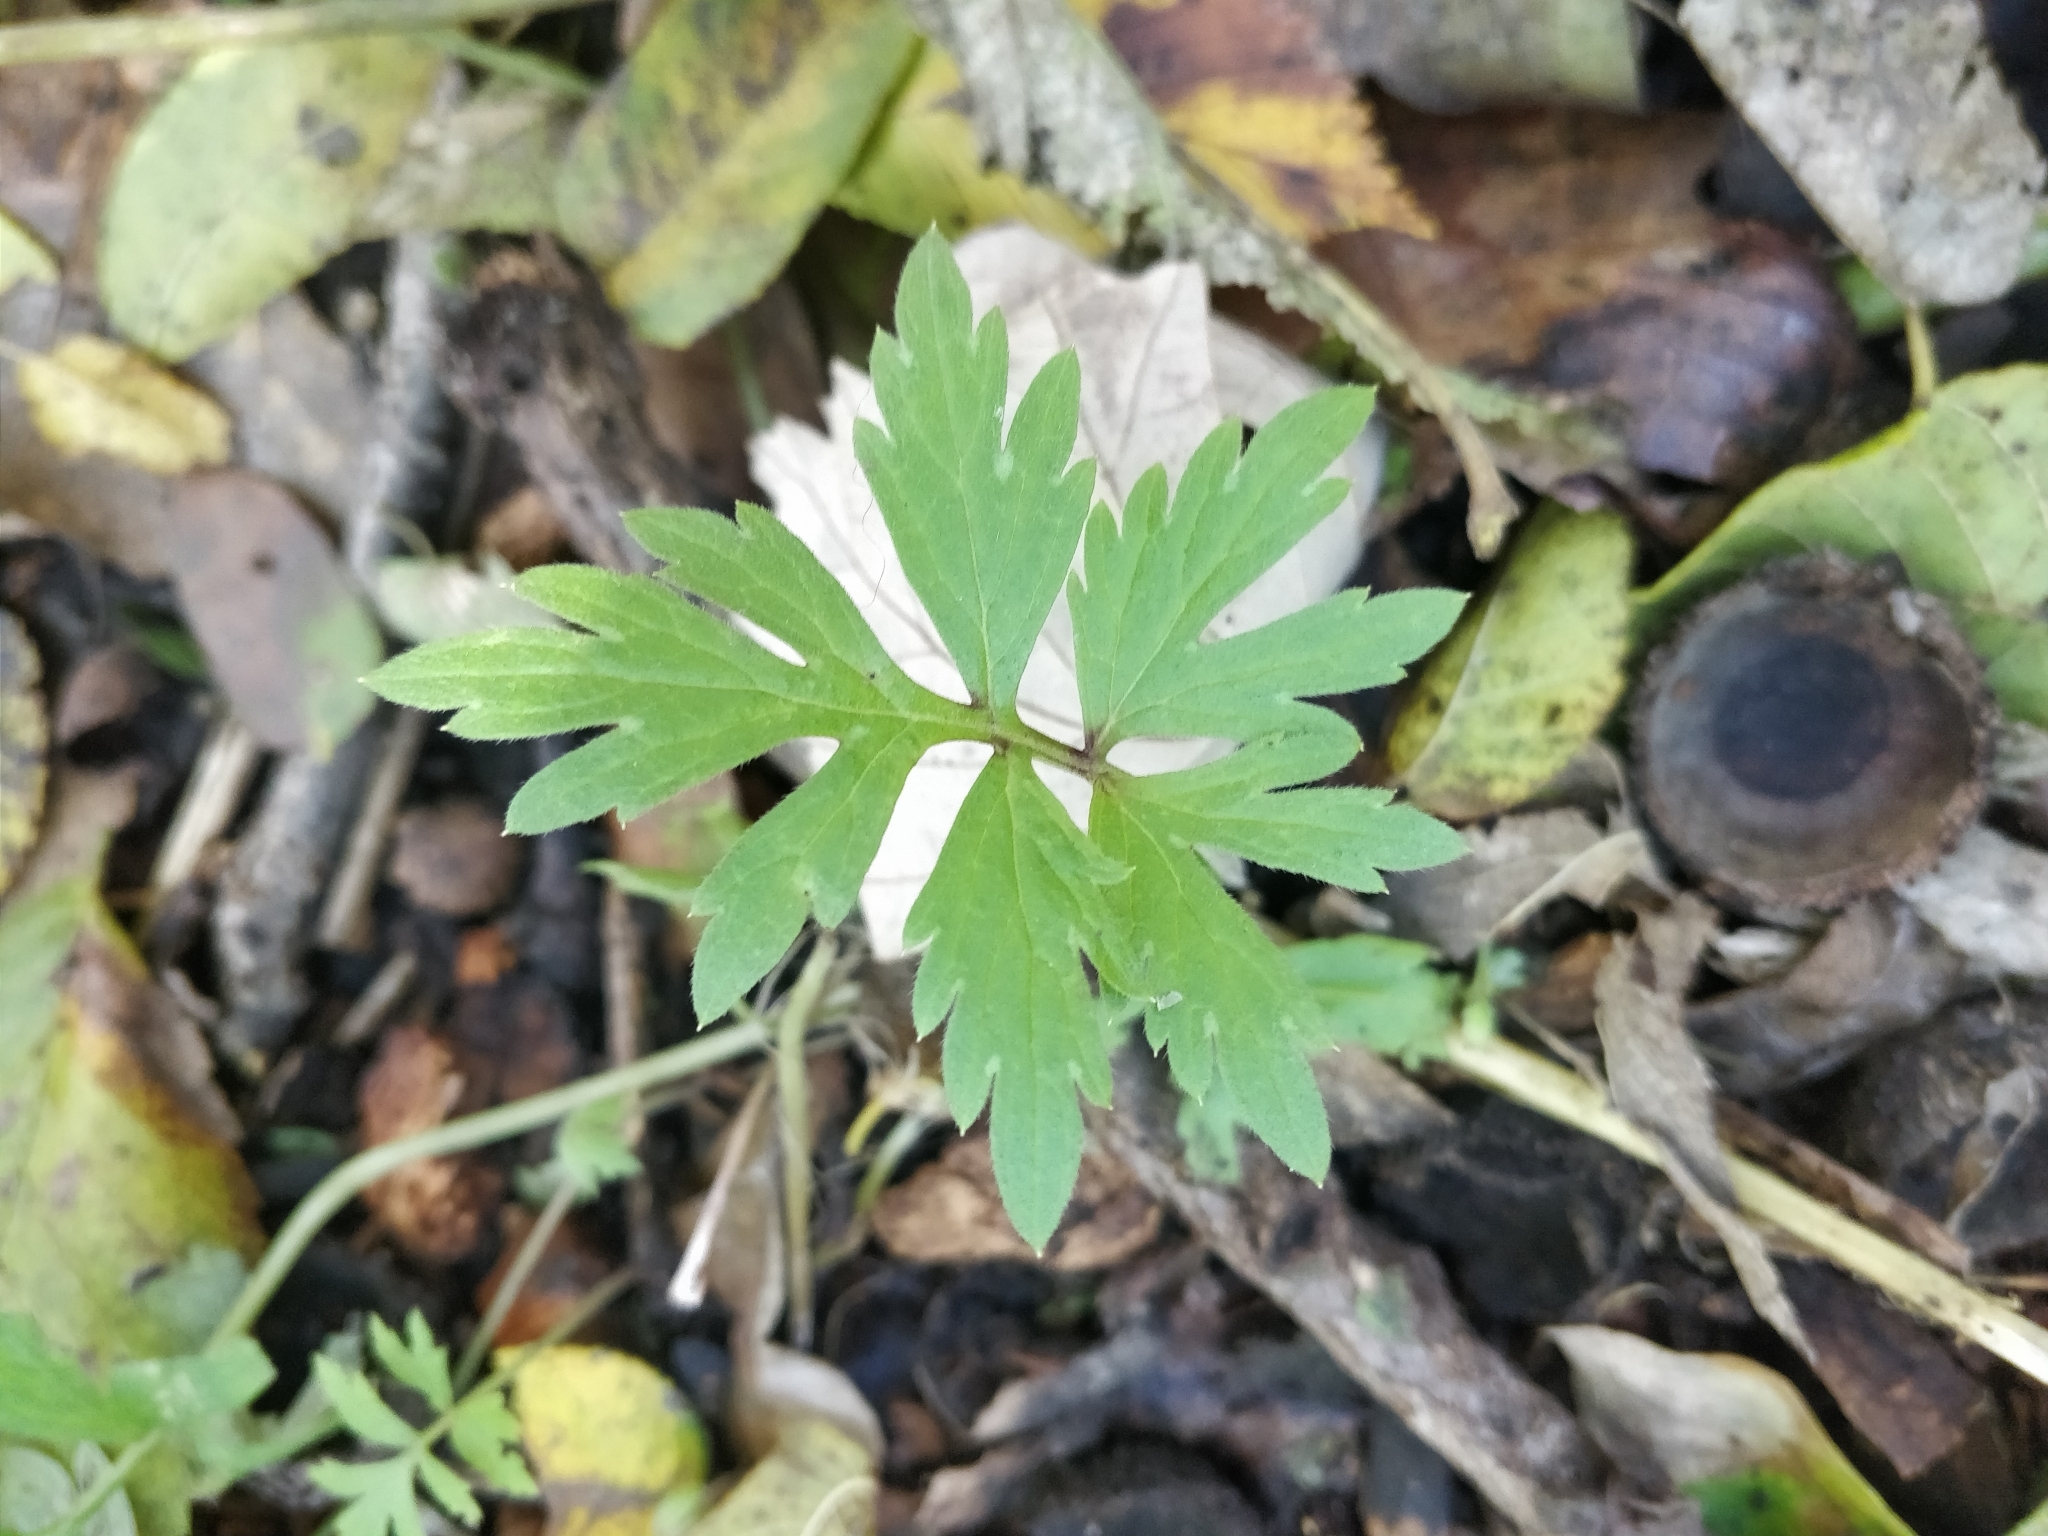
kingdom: Plantae
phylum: Tracheophyta
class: Magnoliopsida
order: Boraginales
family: Hydrophyllaceae
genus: Hydrophyllum
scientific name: Hydrophyllum virginianum
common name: Virginia waterleaf
